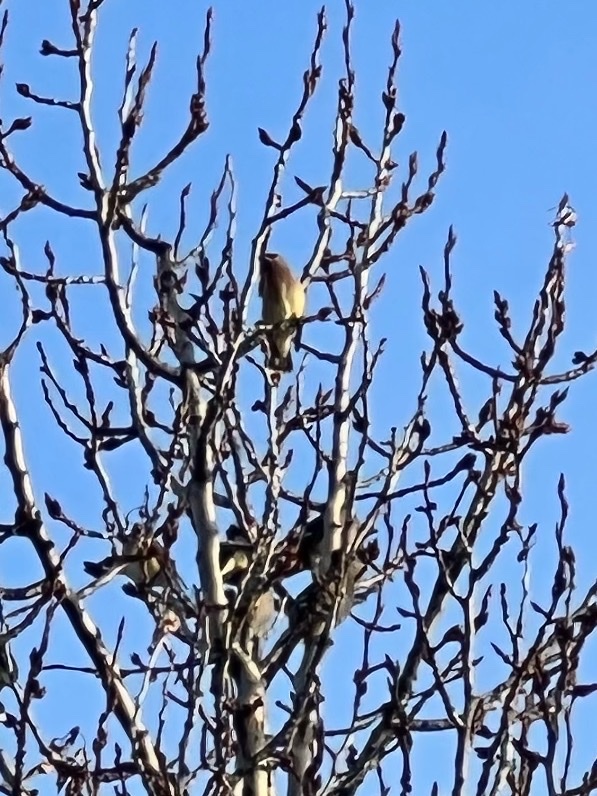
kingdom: Animalia
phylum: Chordata
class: Aves
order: Passeriformes
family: Bombycillidae
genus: Bombycilla
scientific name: Bombycilla garrulus
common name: Bohemian waxwing
